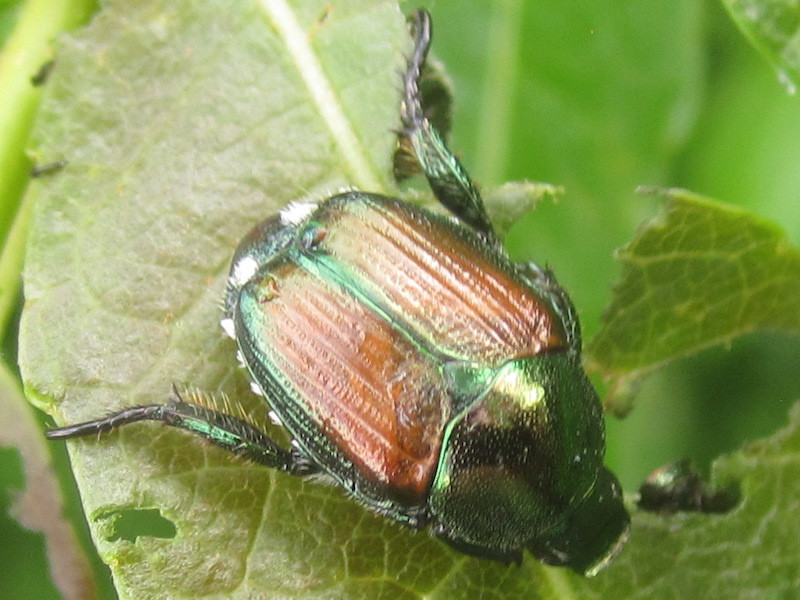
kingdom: Animalia
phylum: Arthropoda
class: Insecta
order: Coleoptera
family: Scarabaeidae
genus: Popillia
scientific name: Popillia japonica
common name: Japanese beetle
